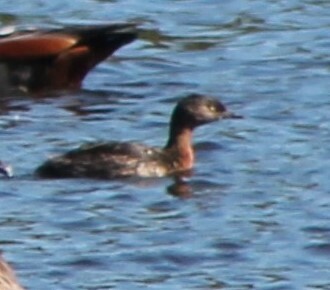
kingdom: Animalia
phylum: Chordata
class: Aves
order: Podicipediformes
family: Podicipedidae
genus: Poliocephalus
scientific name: Poliocephalus rufopectus
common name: New zealand grebe
